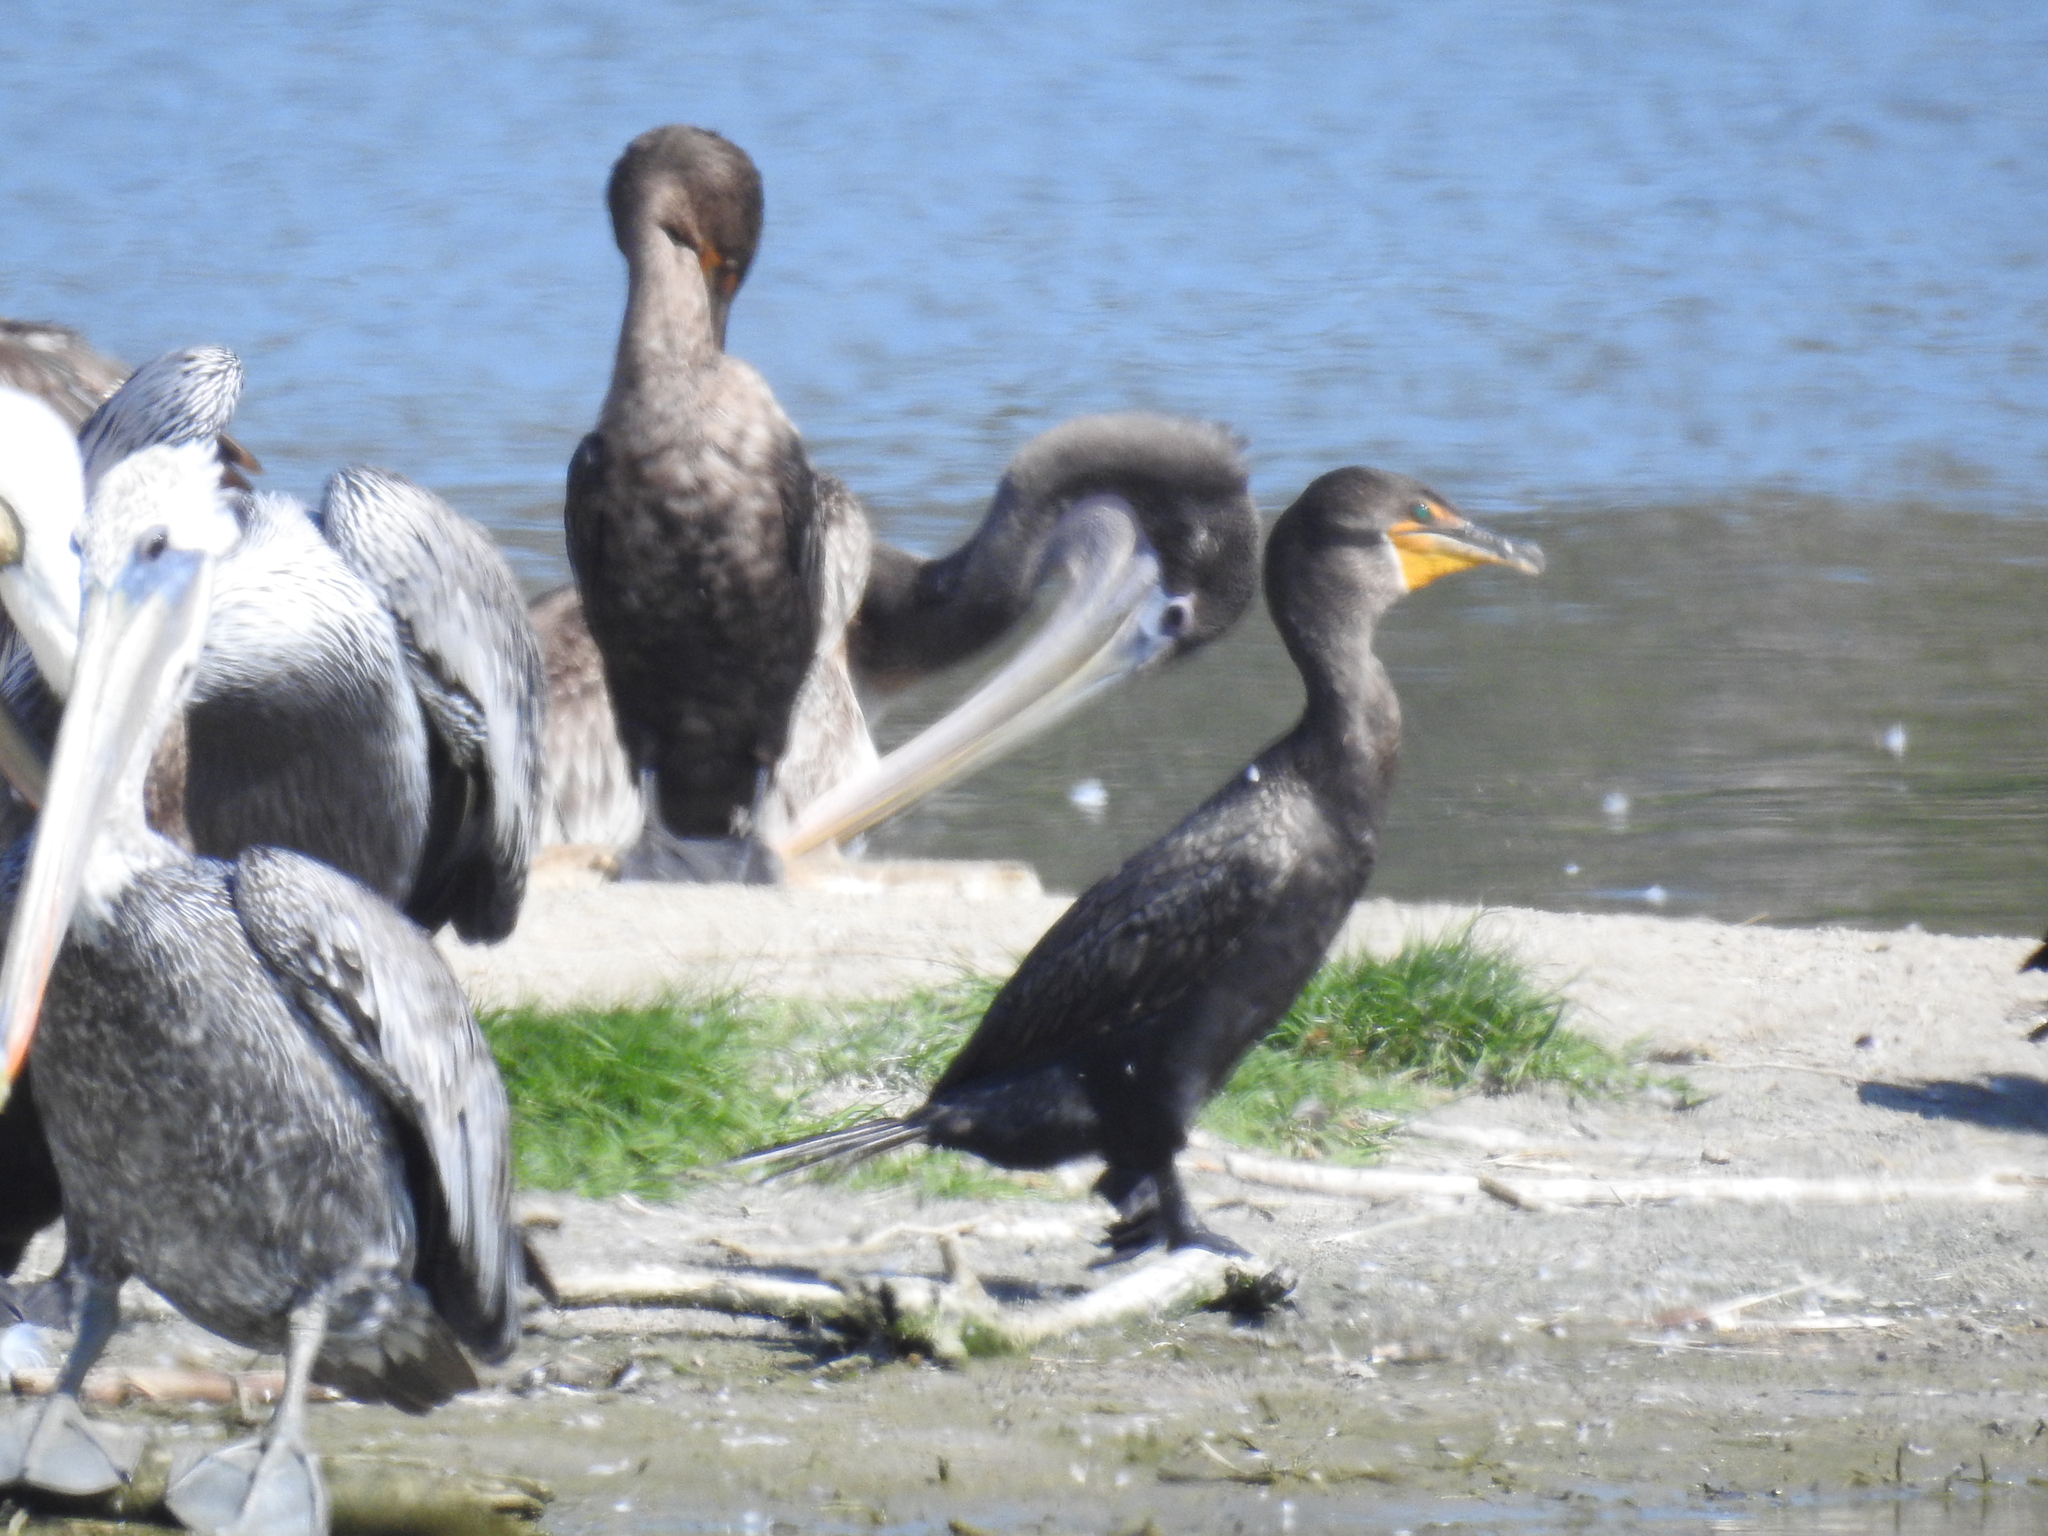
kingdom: Animalia
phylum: Chordata
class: Aves
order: Suliformes
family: Phalacrocoracidae
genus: Phalacrocorax
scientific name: Phalacrocorax auritus
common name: Double-crested cormorant
